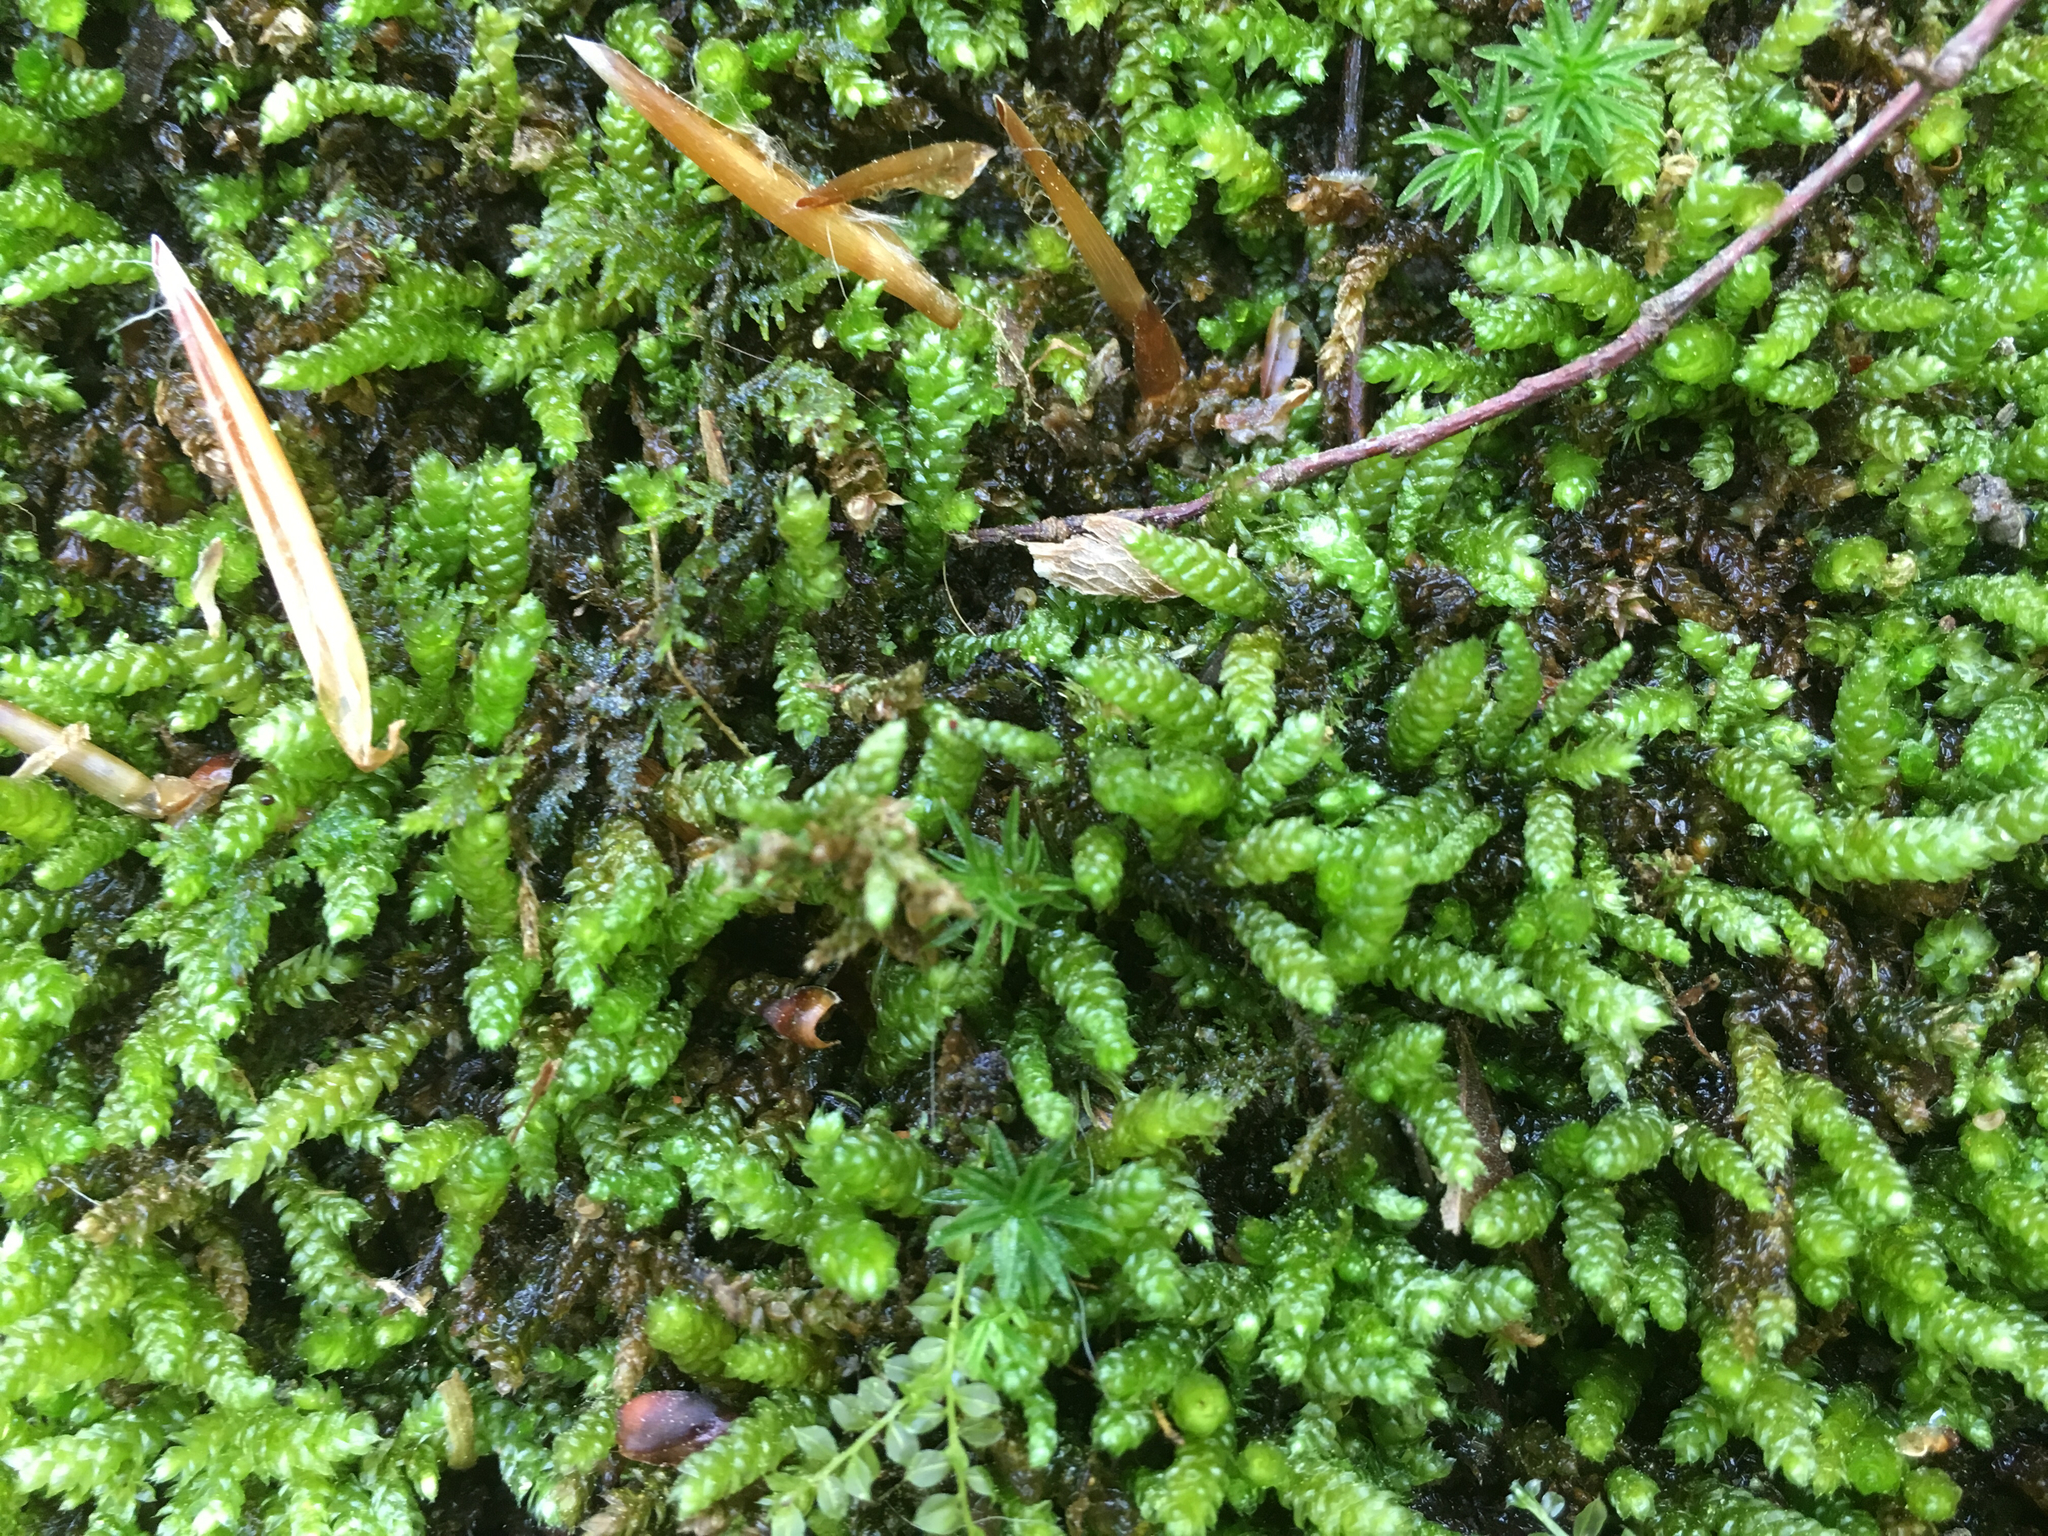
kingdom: Plantae
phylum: Bryophyta
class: Bryopsida
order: Hypnales
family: Brachytheciaceae
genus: Bryoandersonia
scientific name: Bryoandersonia illecebra
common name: Spoon-leaved moss
